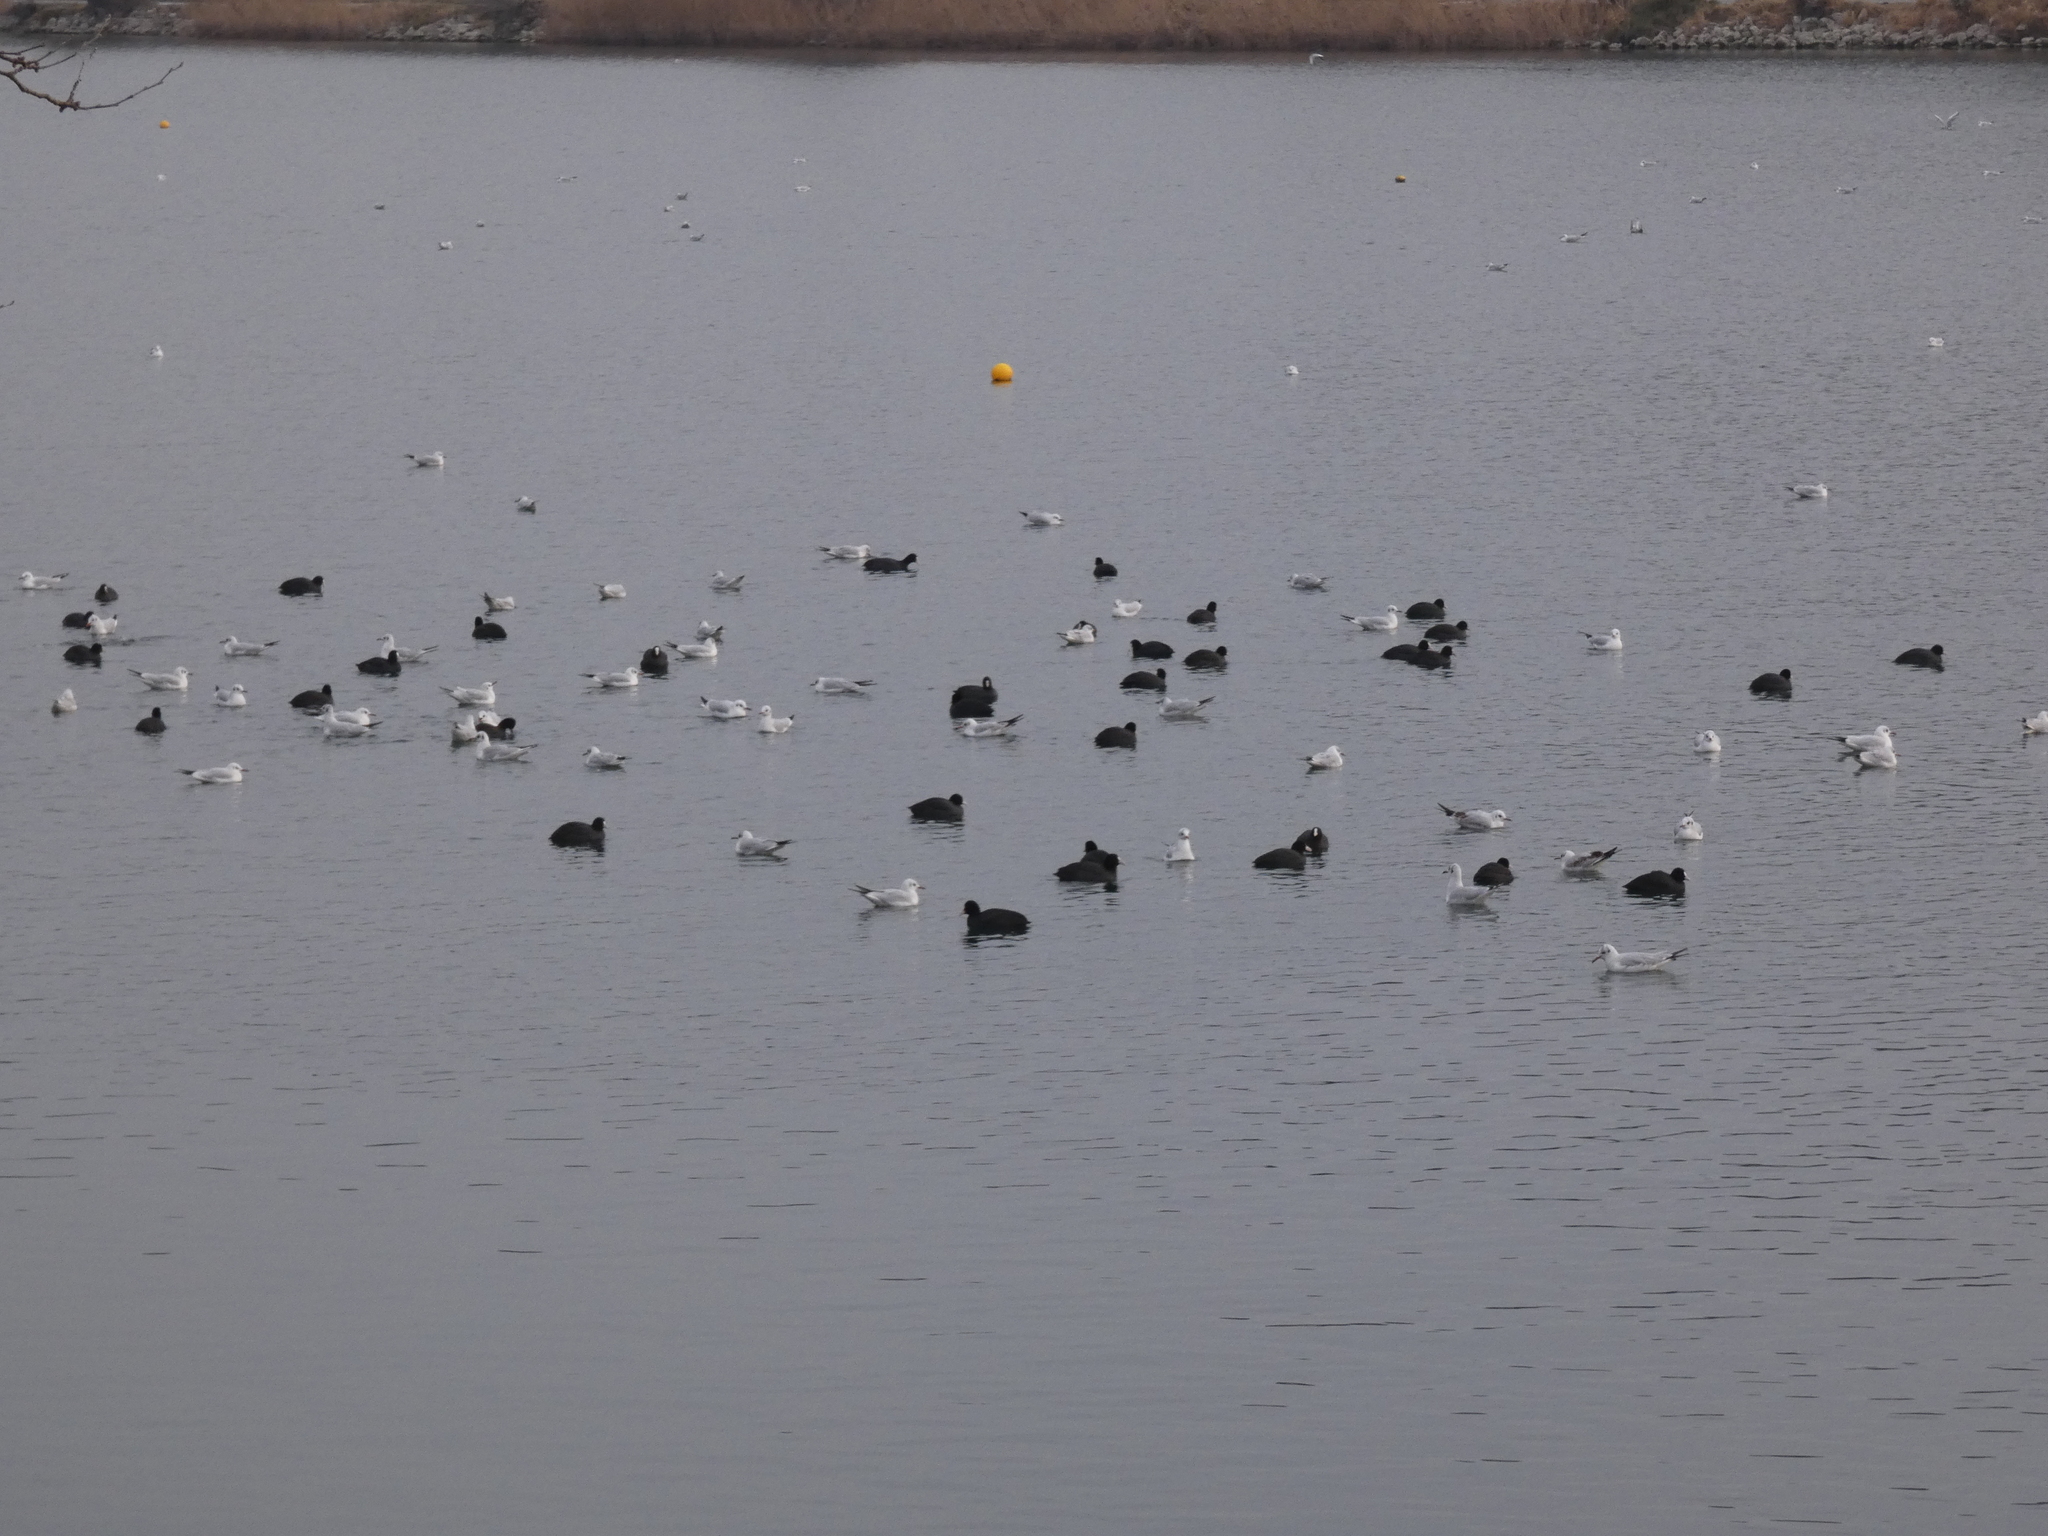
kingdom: Animalia
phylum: Chordata
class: Aves
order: Gruiformes
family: Rallidae
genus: Fulica
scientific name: Fulica atra
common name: Eurasian coot
